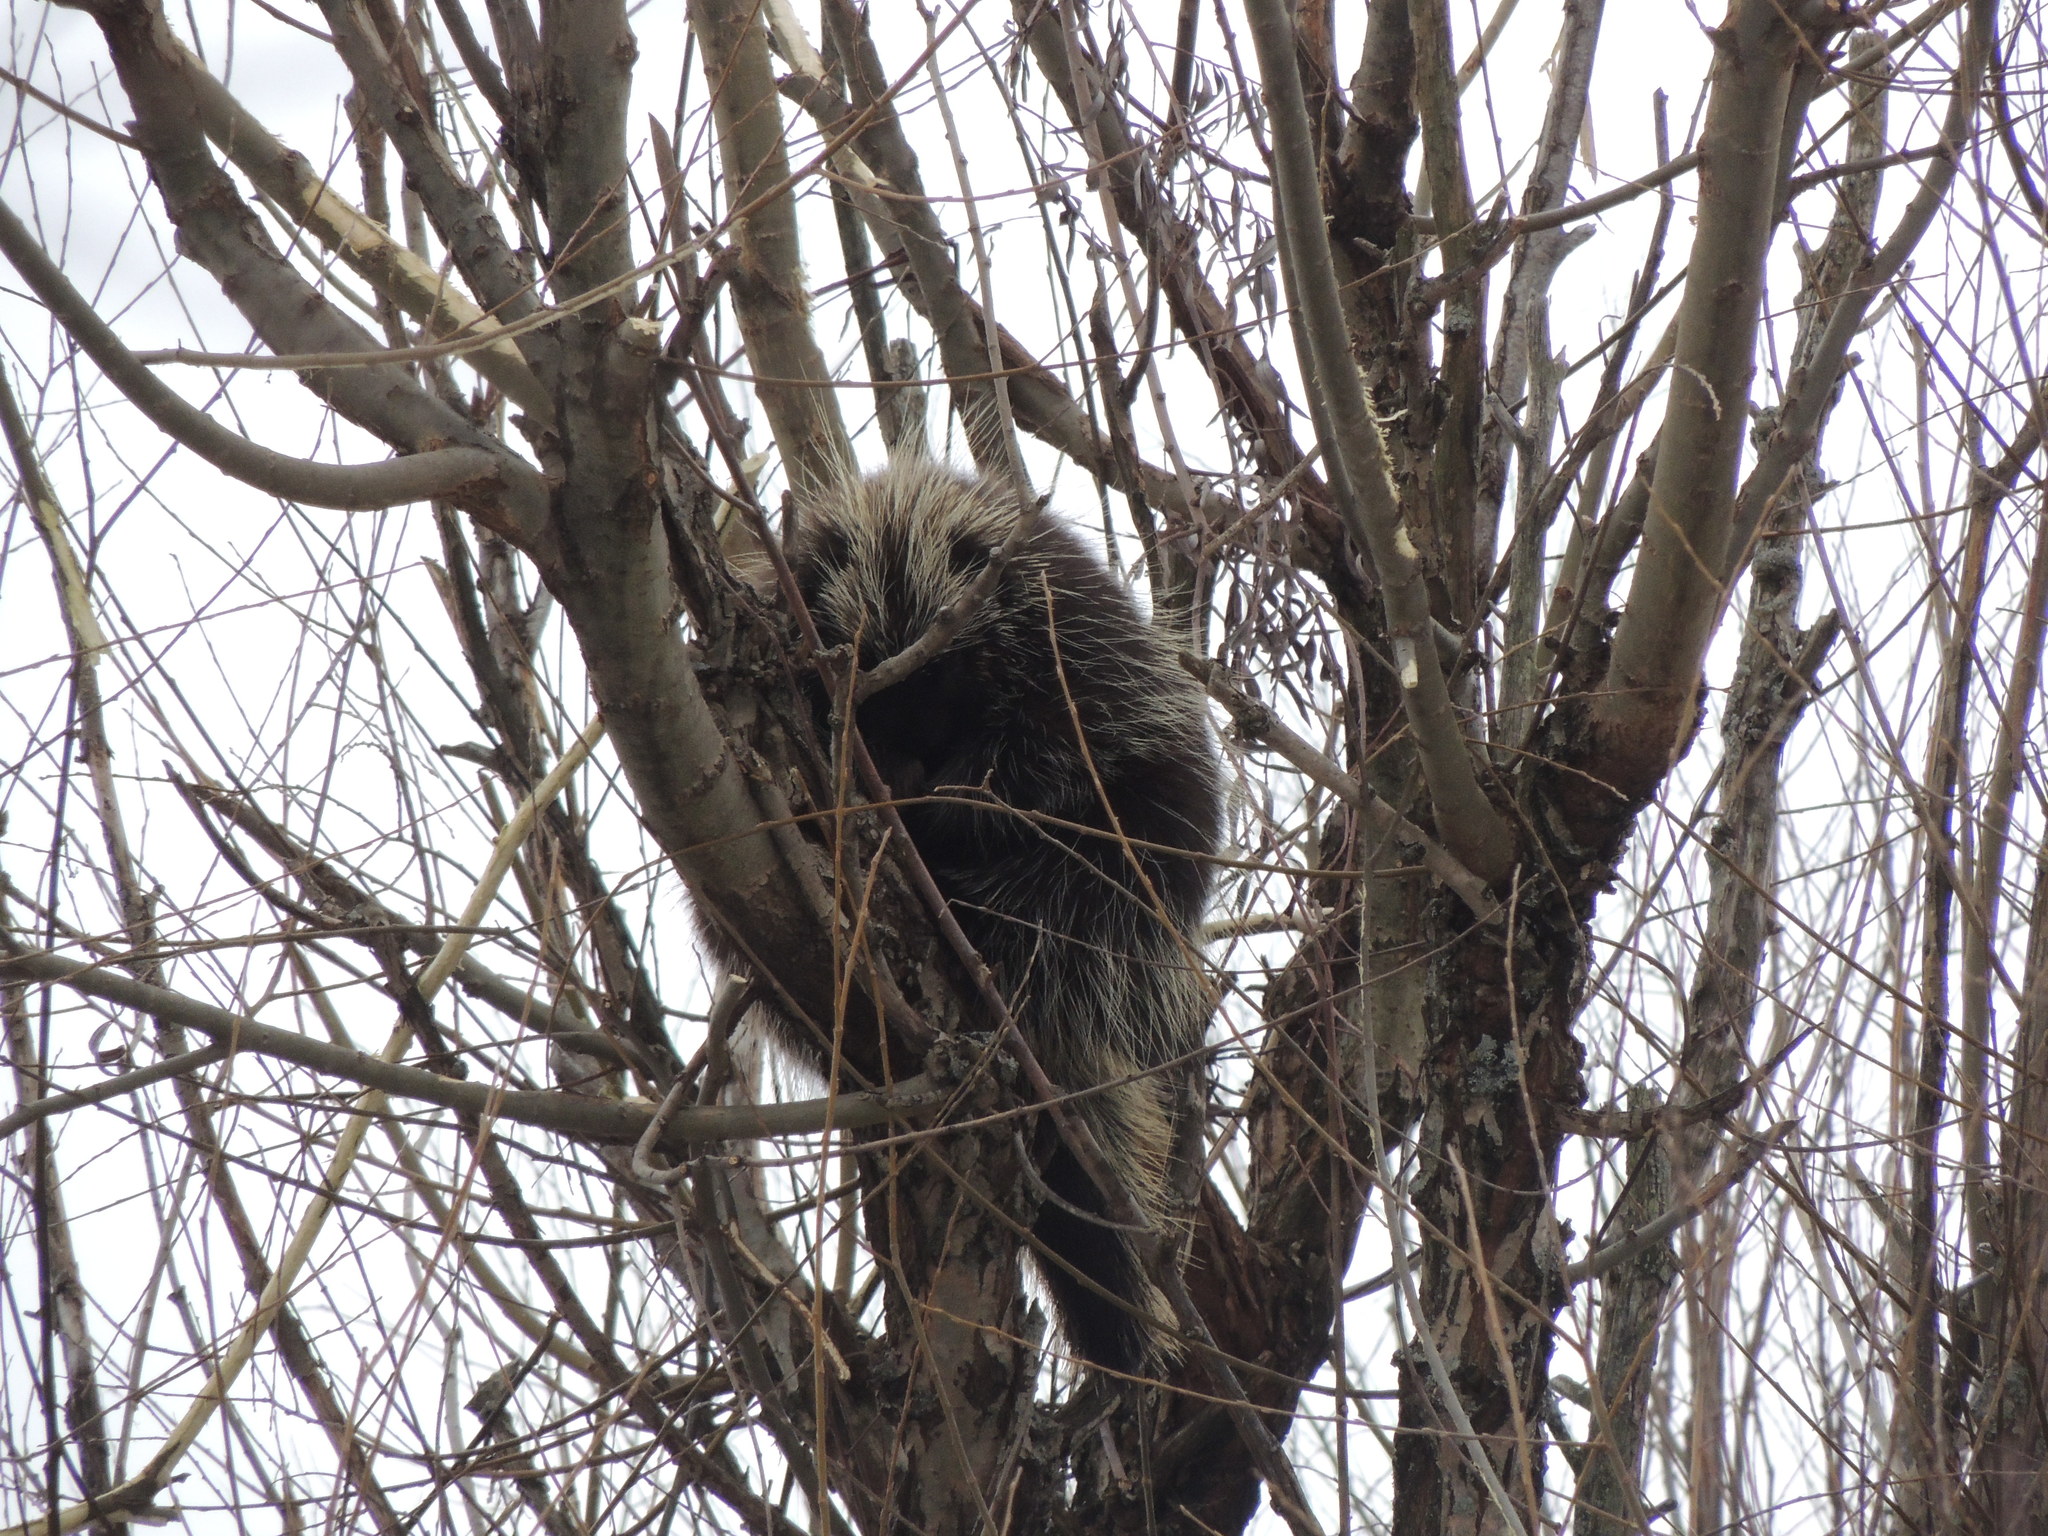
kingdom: Animalia
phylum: Chordata
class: Mammalia
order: Rodentia
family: Erethizontidae
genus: Erethizon
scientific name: Erethizon dorsatus
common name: North american porcupine
